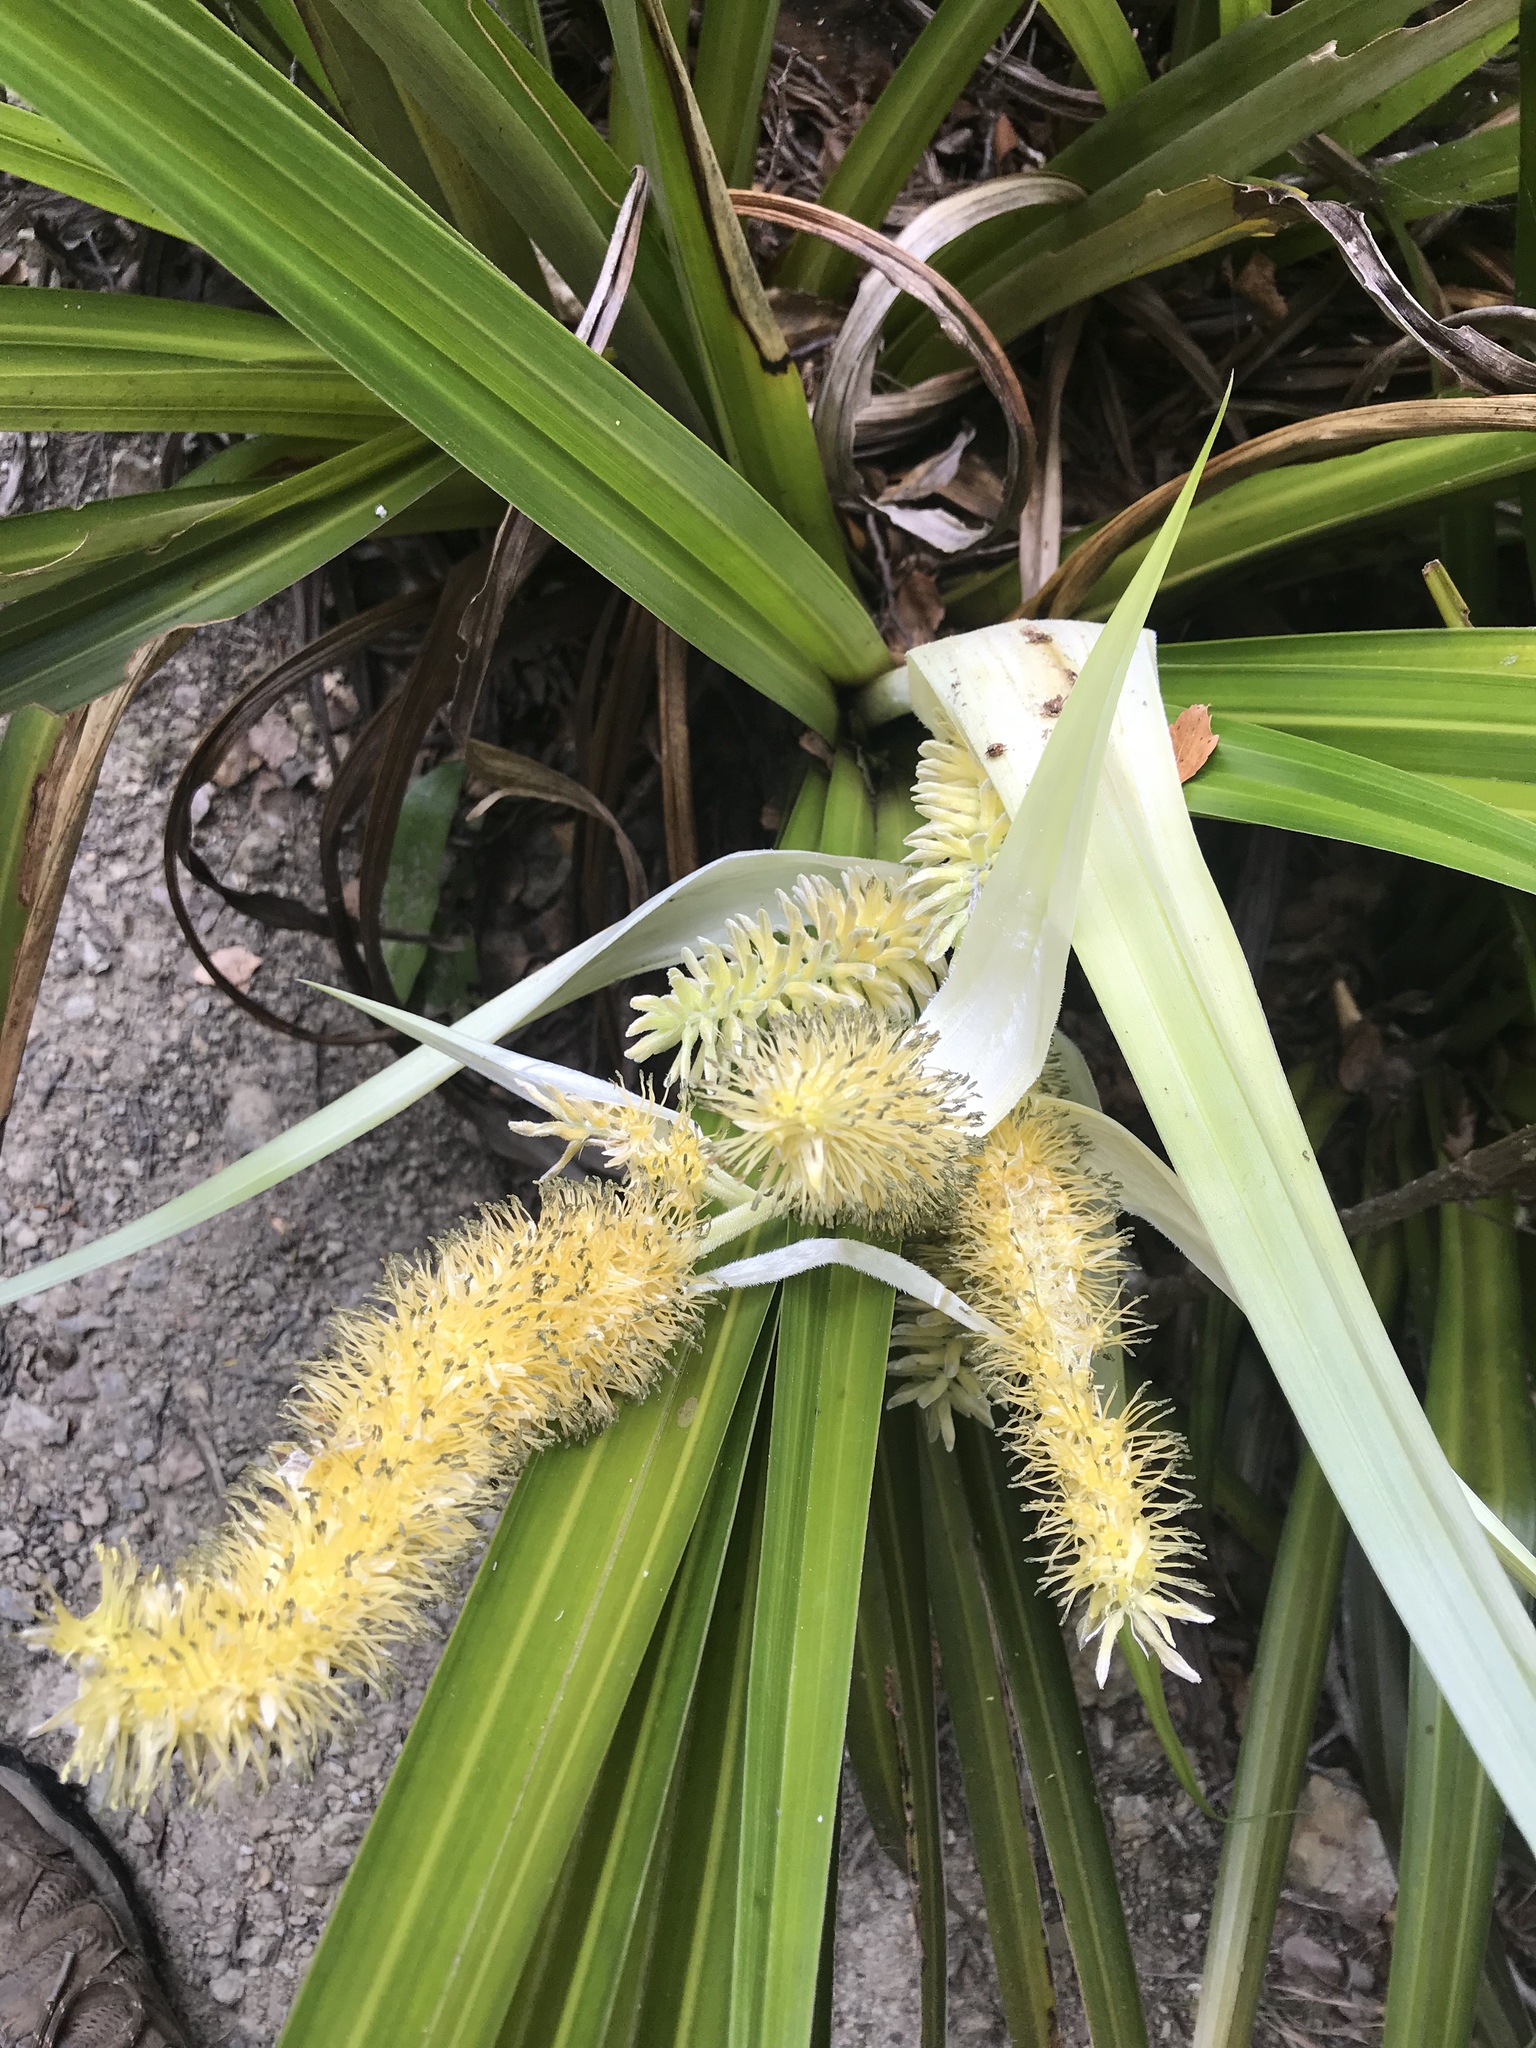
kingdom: Plantae
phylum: Tracheophyta
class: Liliopsida
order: Asparagales
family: Asteliaceae
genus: Astelia
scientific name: Astelia hastata
